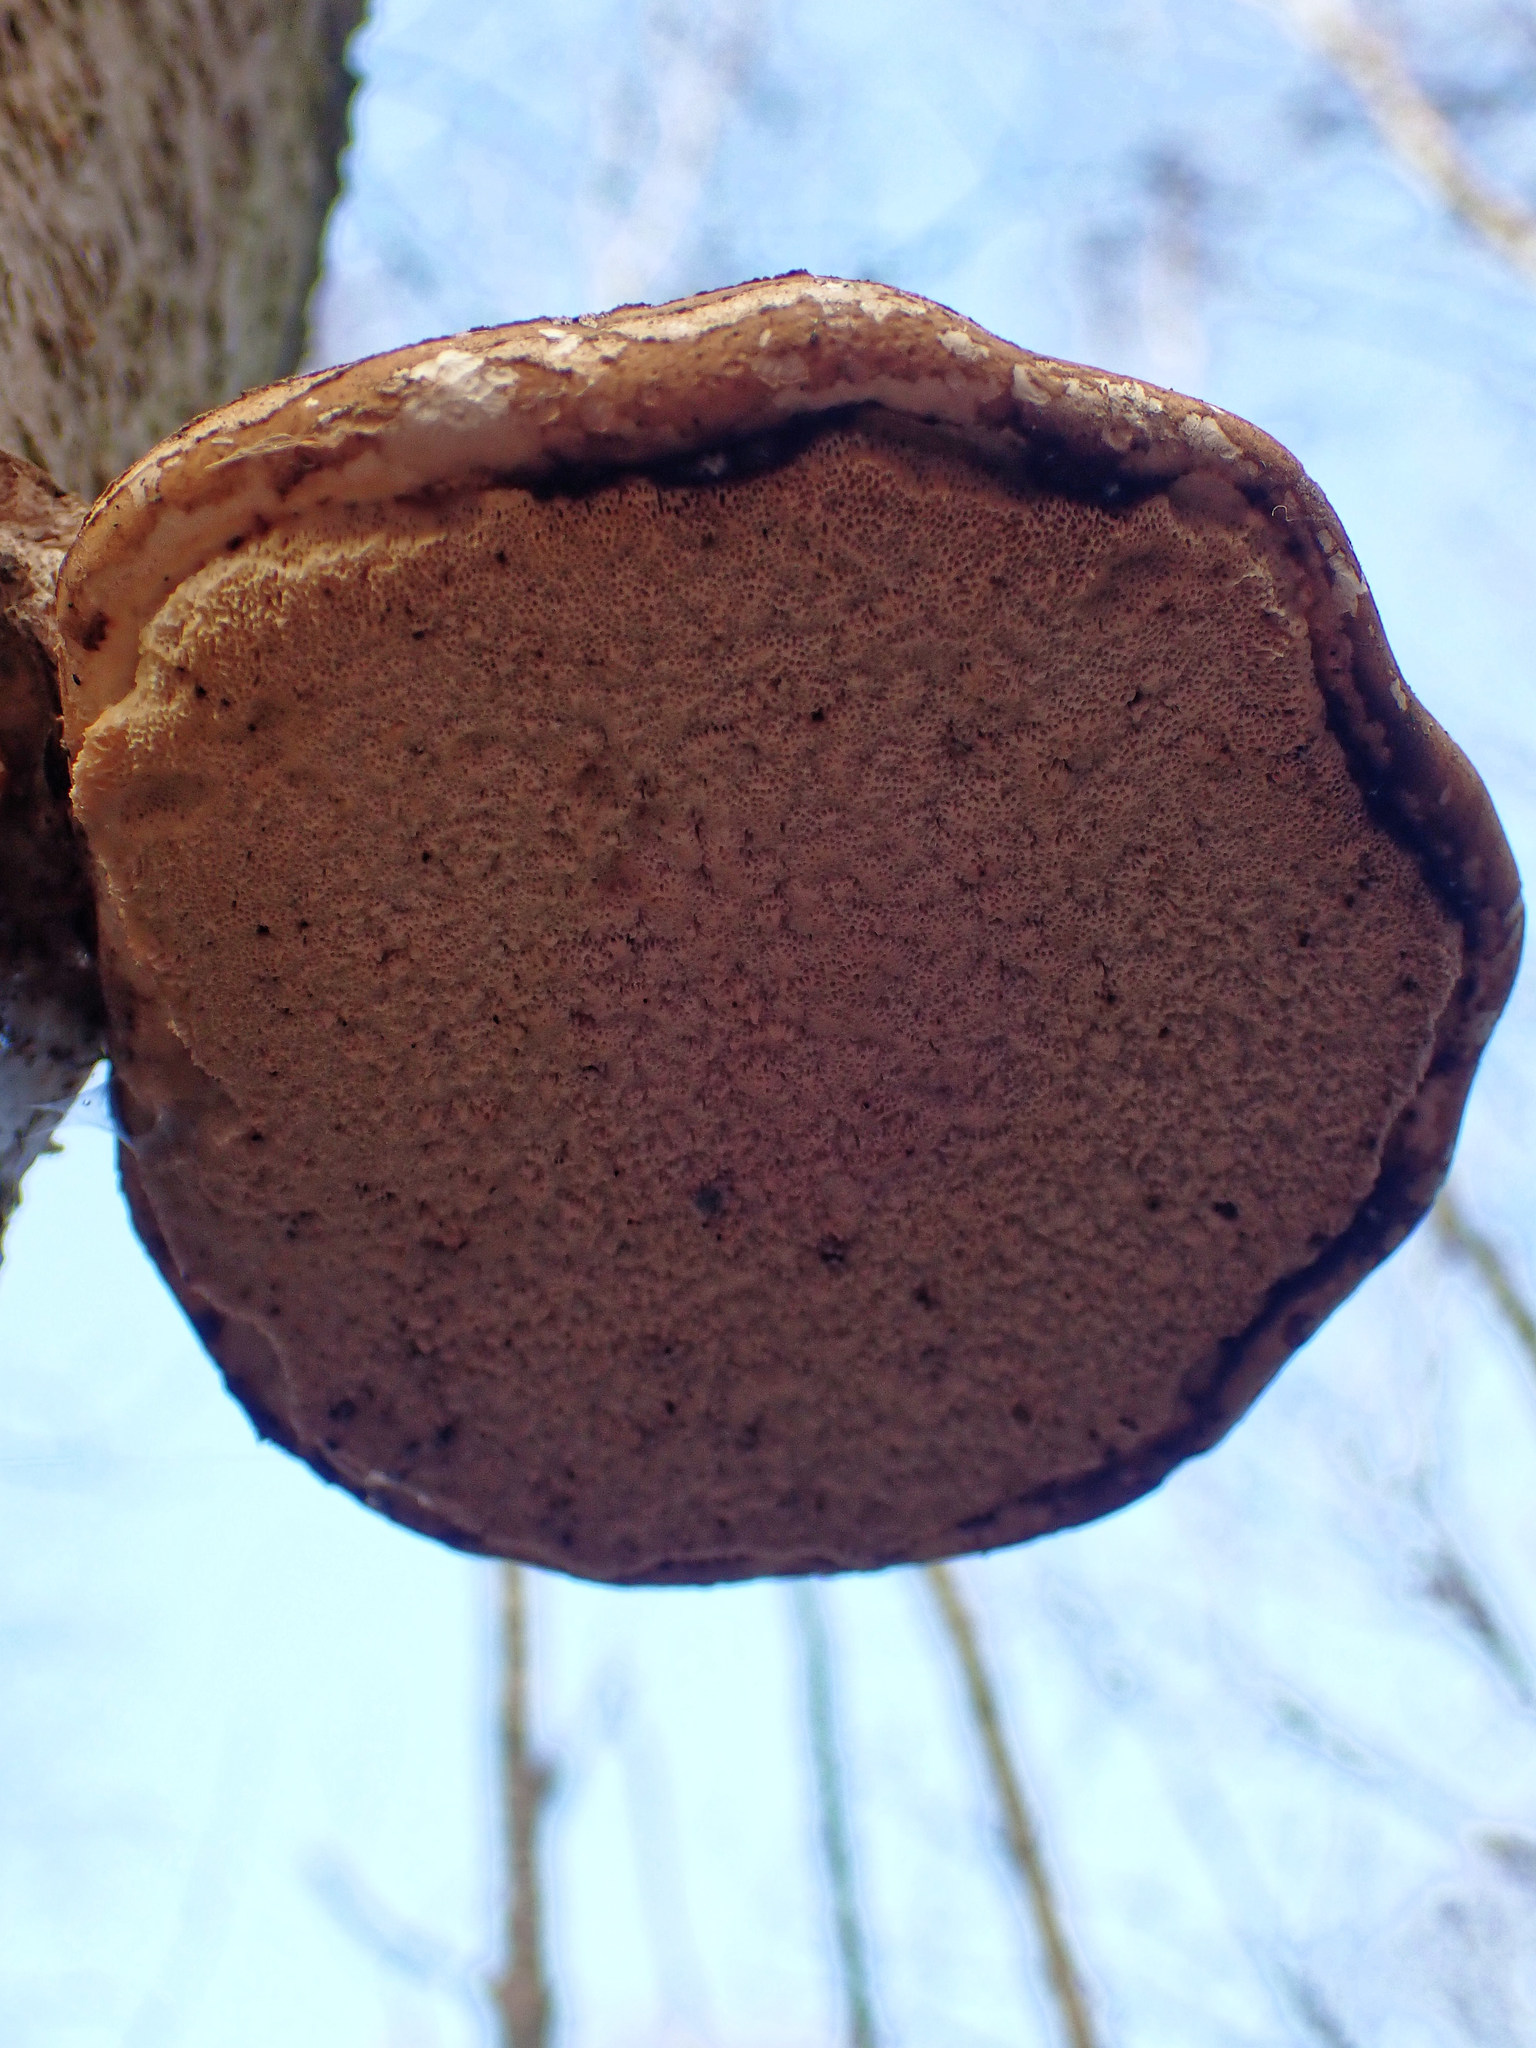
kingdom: Fungi
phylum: Basidiomycota
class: Agaricomycetes
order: Polyporales
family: Fomitopsidaceae
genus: Fomitopsis
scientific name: Fomitopsis betulina
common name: Birch polypore
